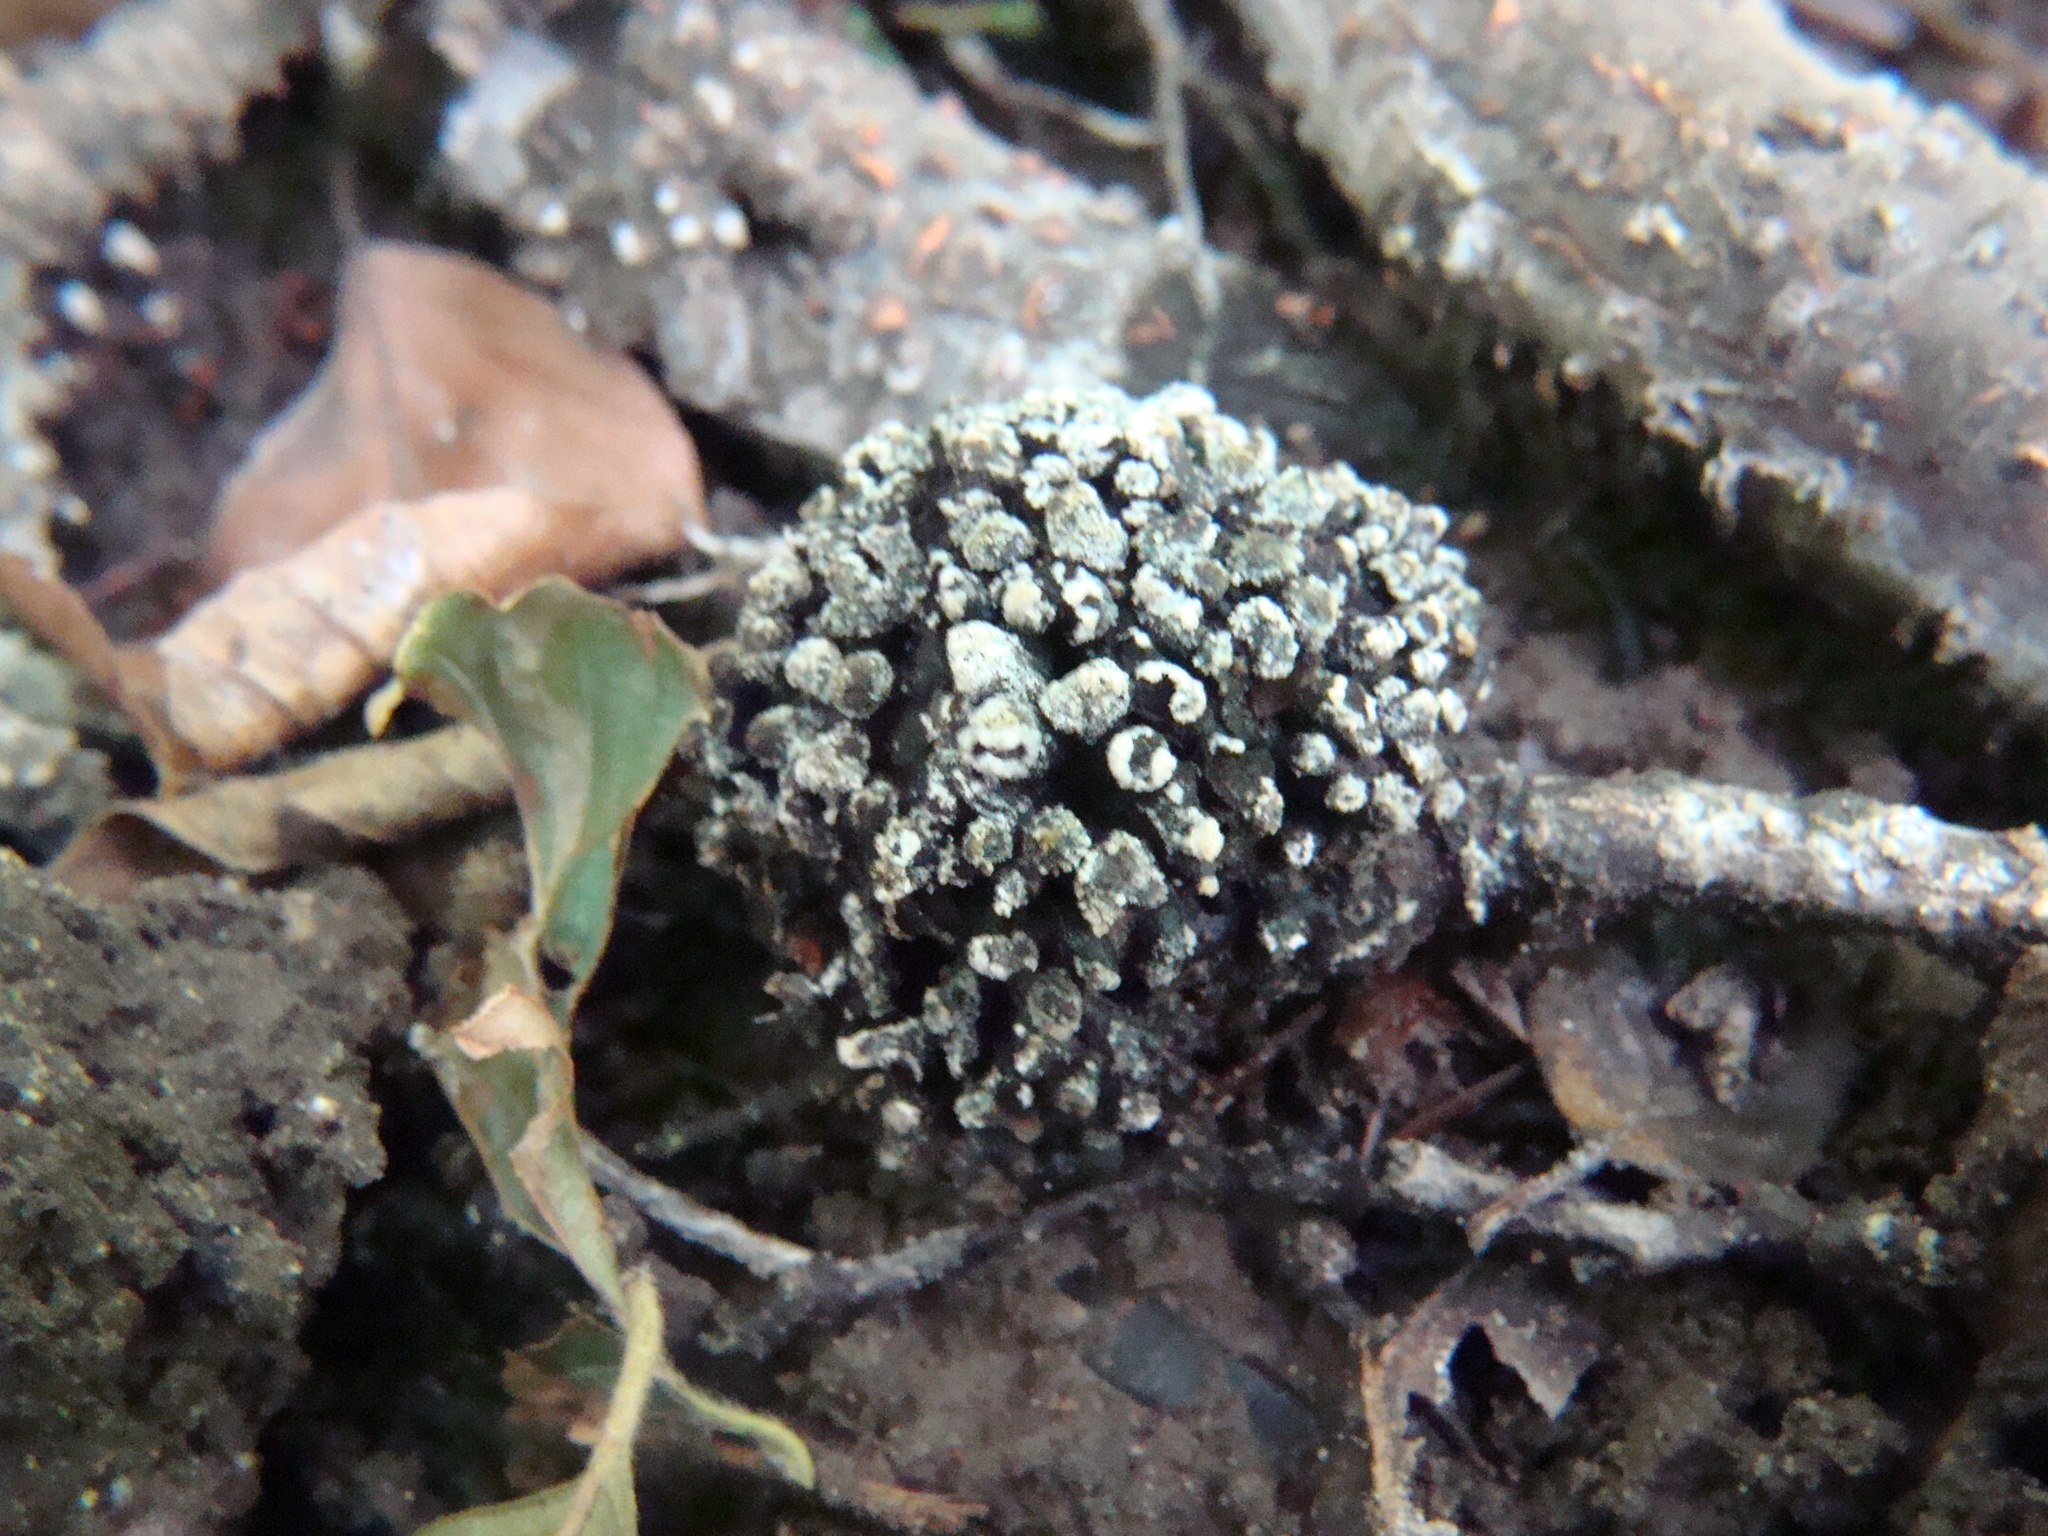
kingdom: Bacteria
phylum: Actinobacteriota
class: Actinomycetia
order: Mycobacteriales
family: Frankiaceae
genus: Frankia
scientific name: Frankia alni
